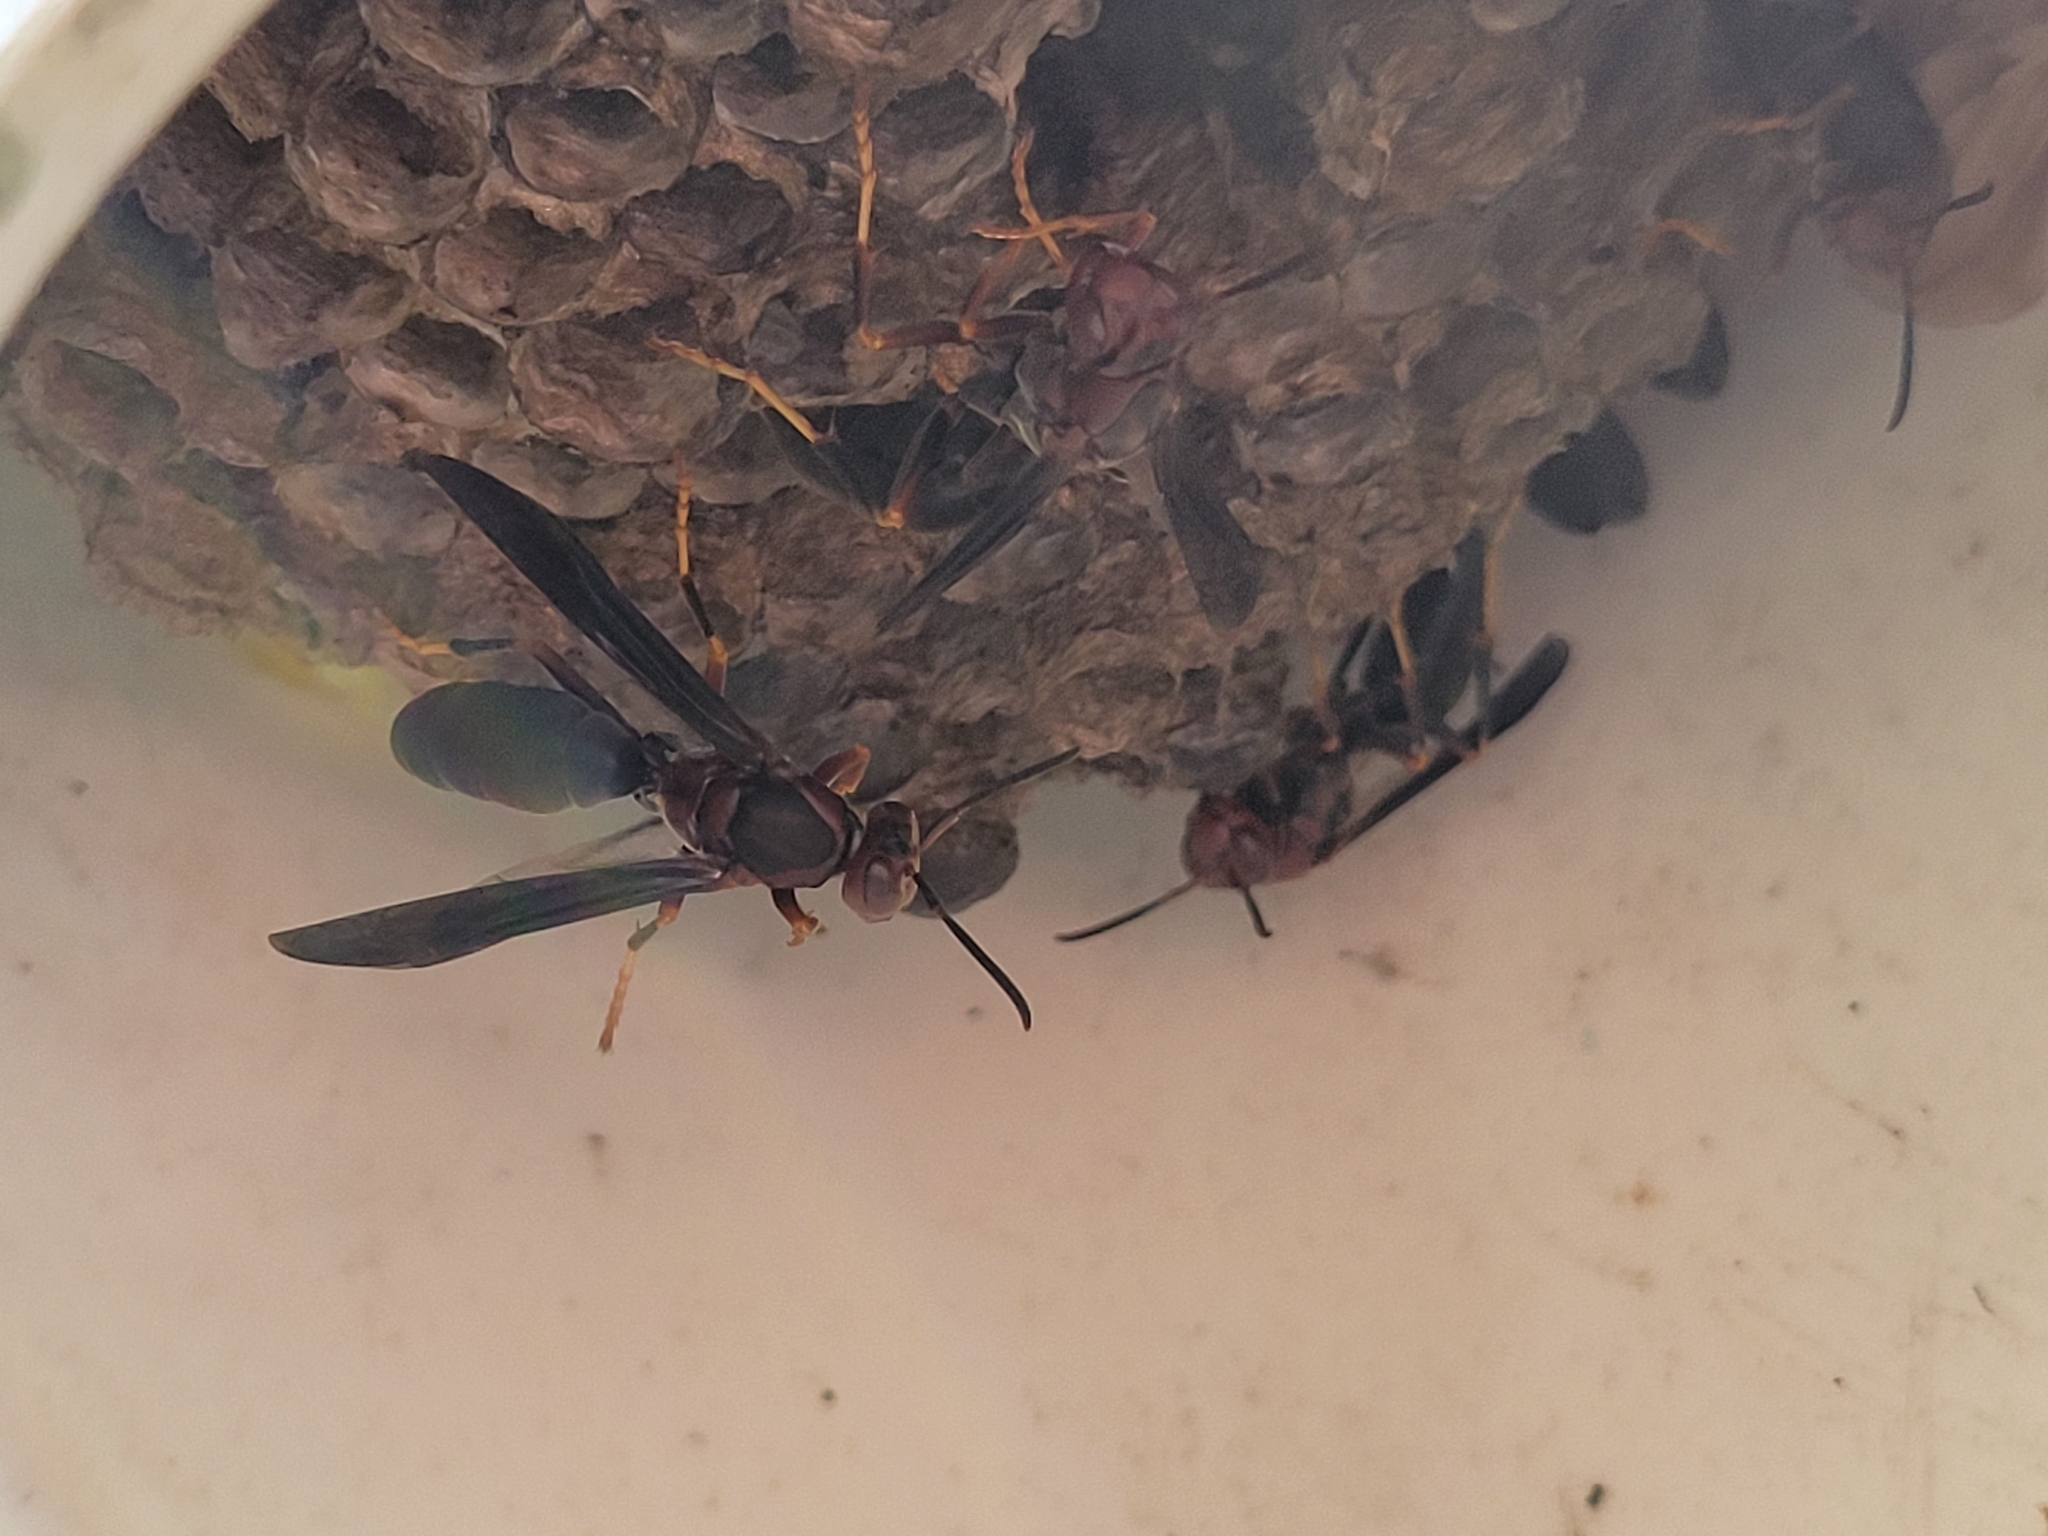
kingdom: Animalia
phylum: Arthropoda
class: Insecta
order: Hymenoptera
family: Eumenidae
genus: Polistes
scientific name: Polistes metricus
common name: Metric paper wasp
